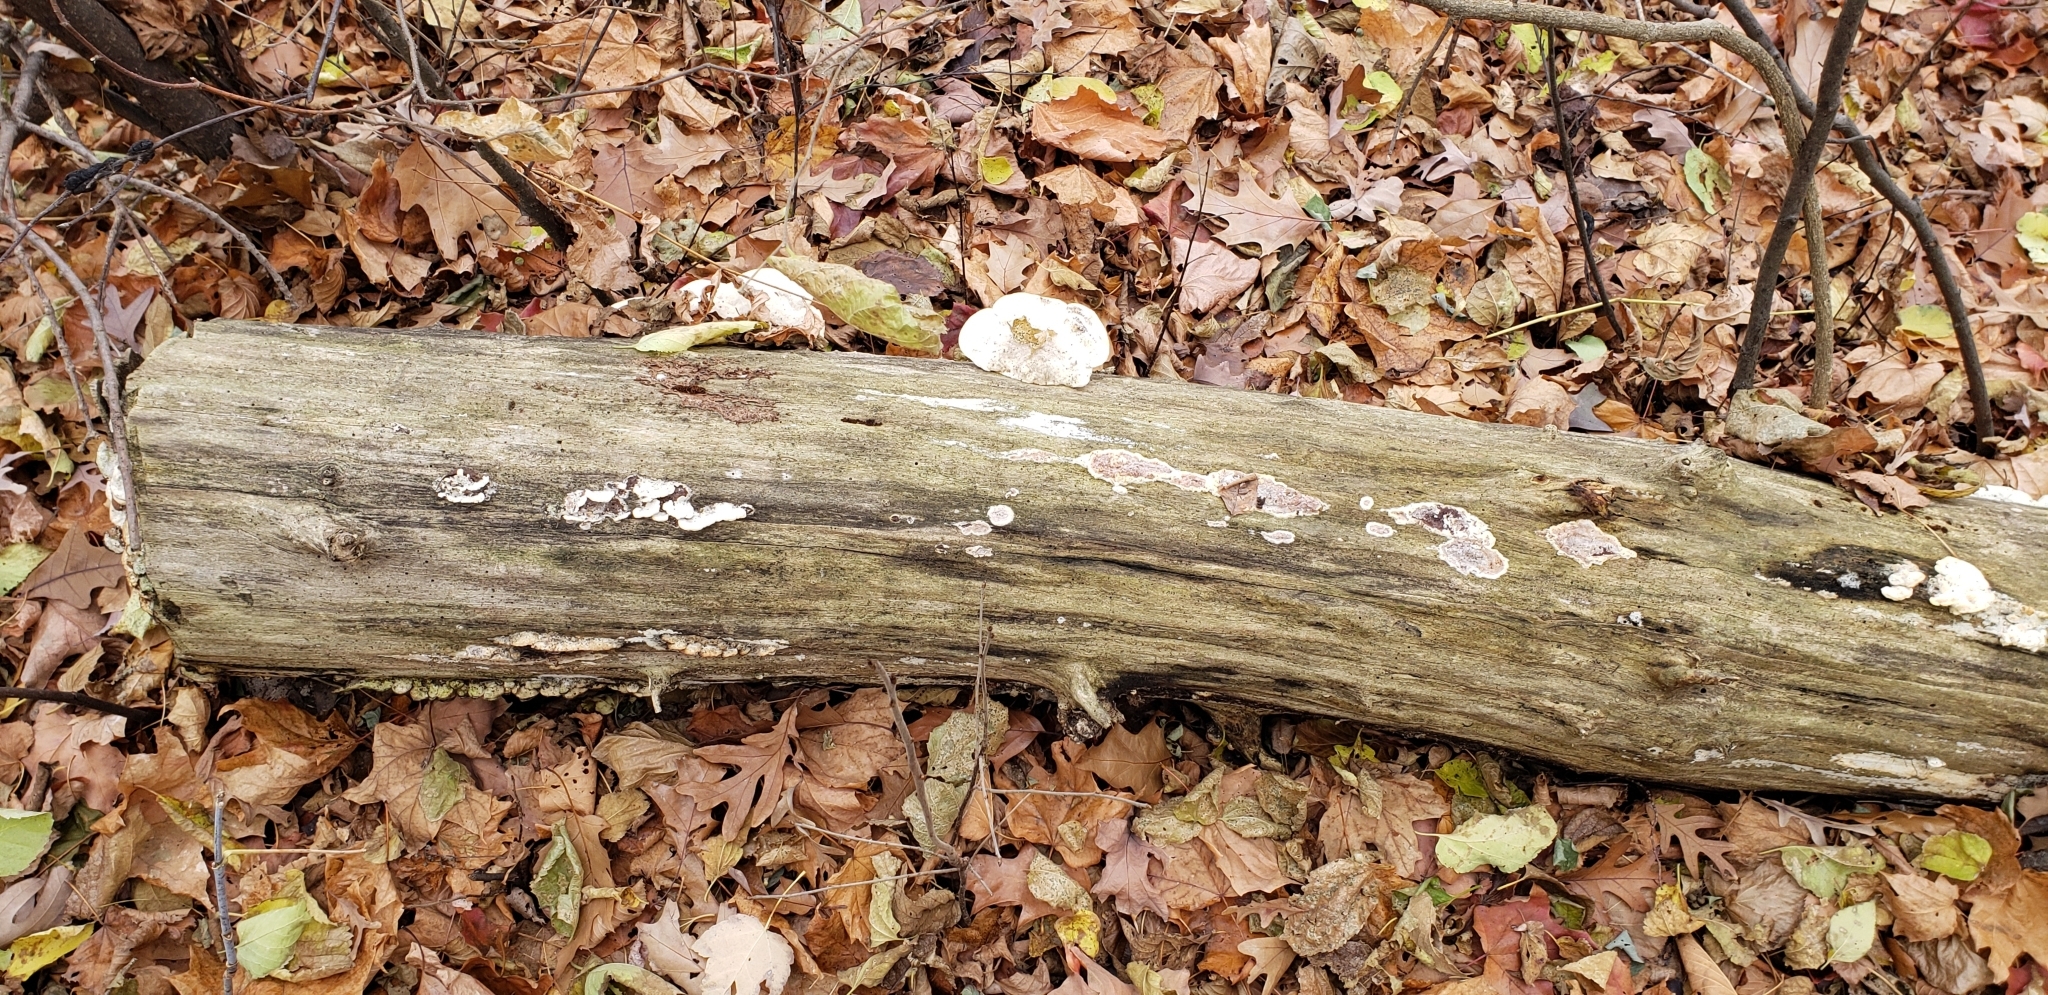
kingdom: Fungi
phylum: Basidiomycota
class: Agaricomycetes
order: Polyporales
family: Polyporaceae
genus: Trametes
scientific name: Trametes gibbosa
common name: Lumpy bracket
